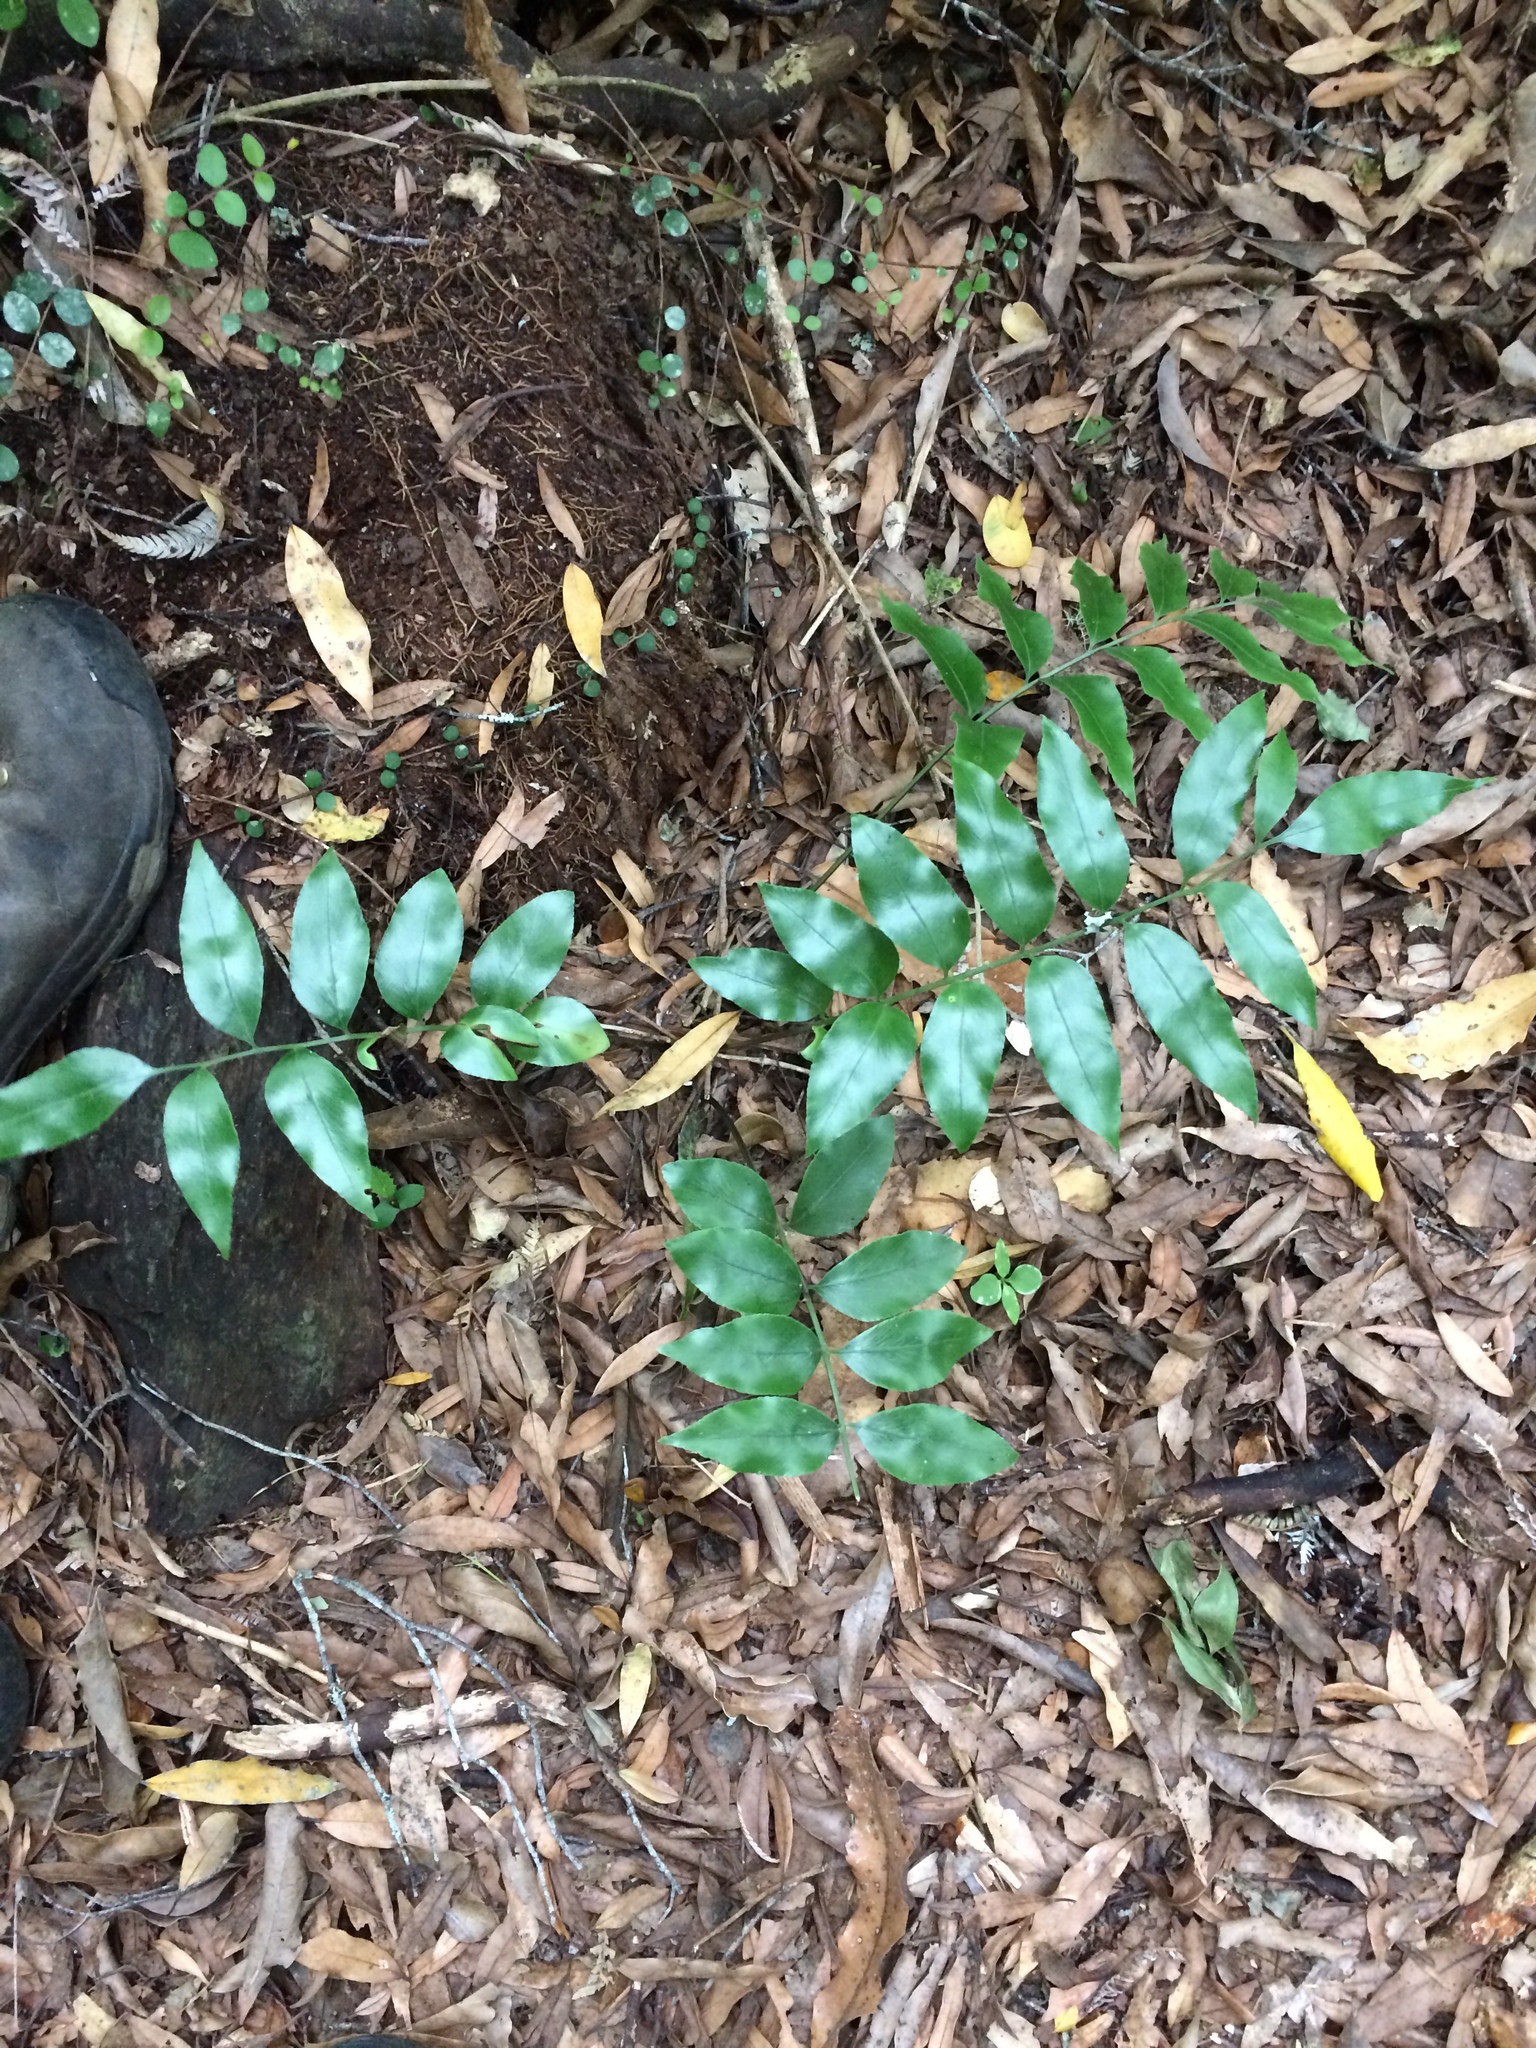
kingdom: Plantae
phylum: Tracheophyta
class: Polypodiopsida
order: Polypodiales
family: Aspleniaceae
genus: Asplenium
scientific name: Asplenium oblongifolium
